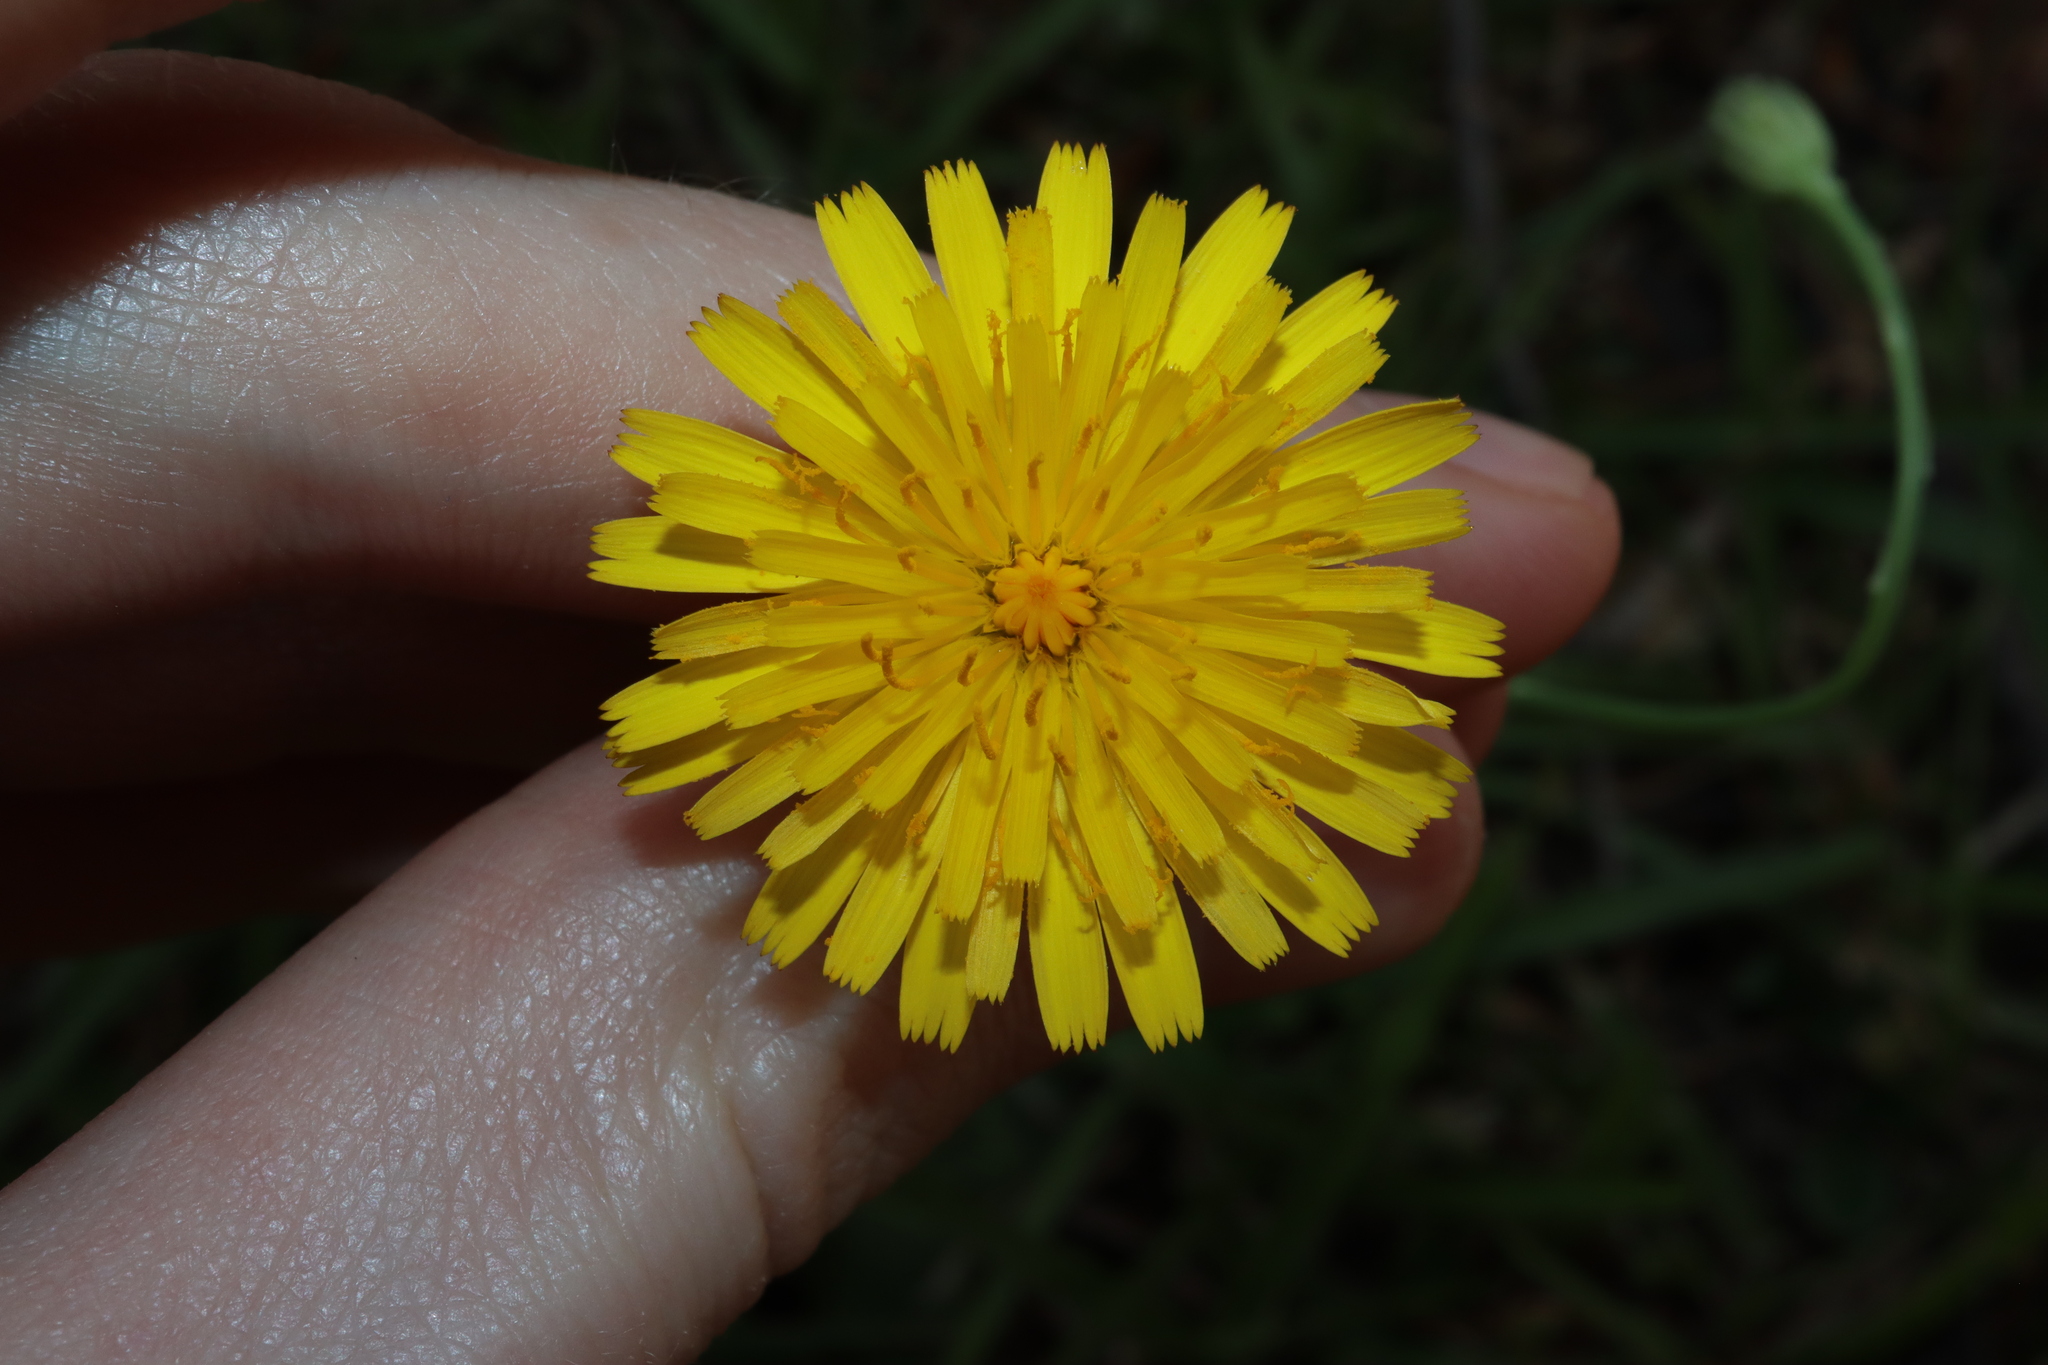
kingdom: Plantae
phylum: Tracheophyta
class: Magnoliopsida
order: Asterales
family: Asteraceae
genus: Hypochaeris
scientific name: Hypochaeris radicata
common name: Flatweed
